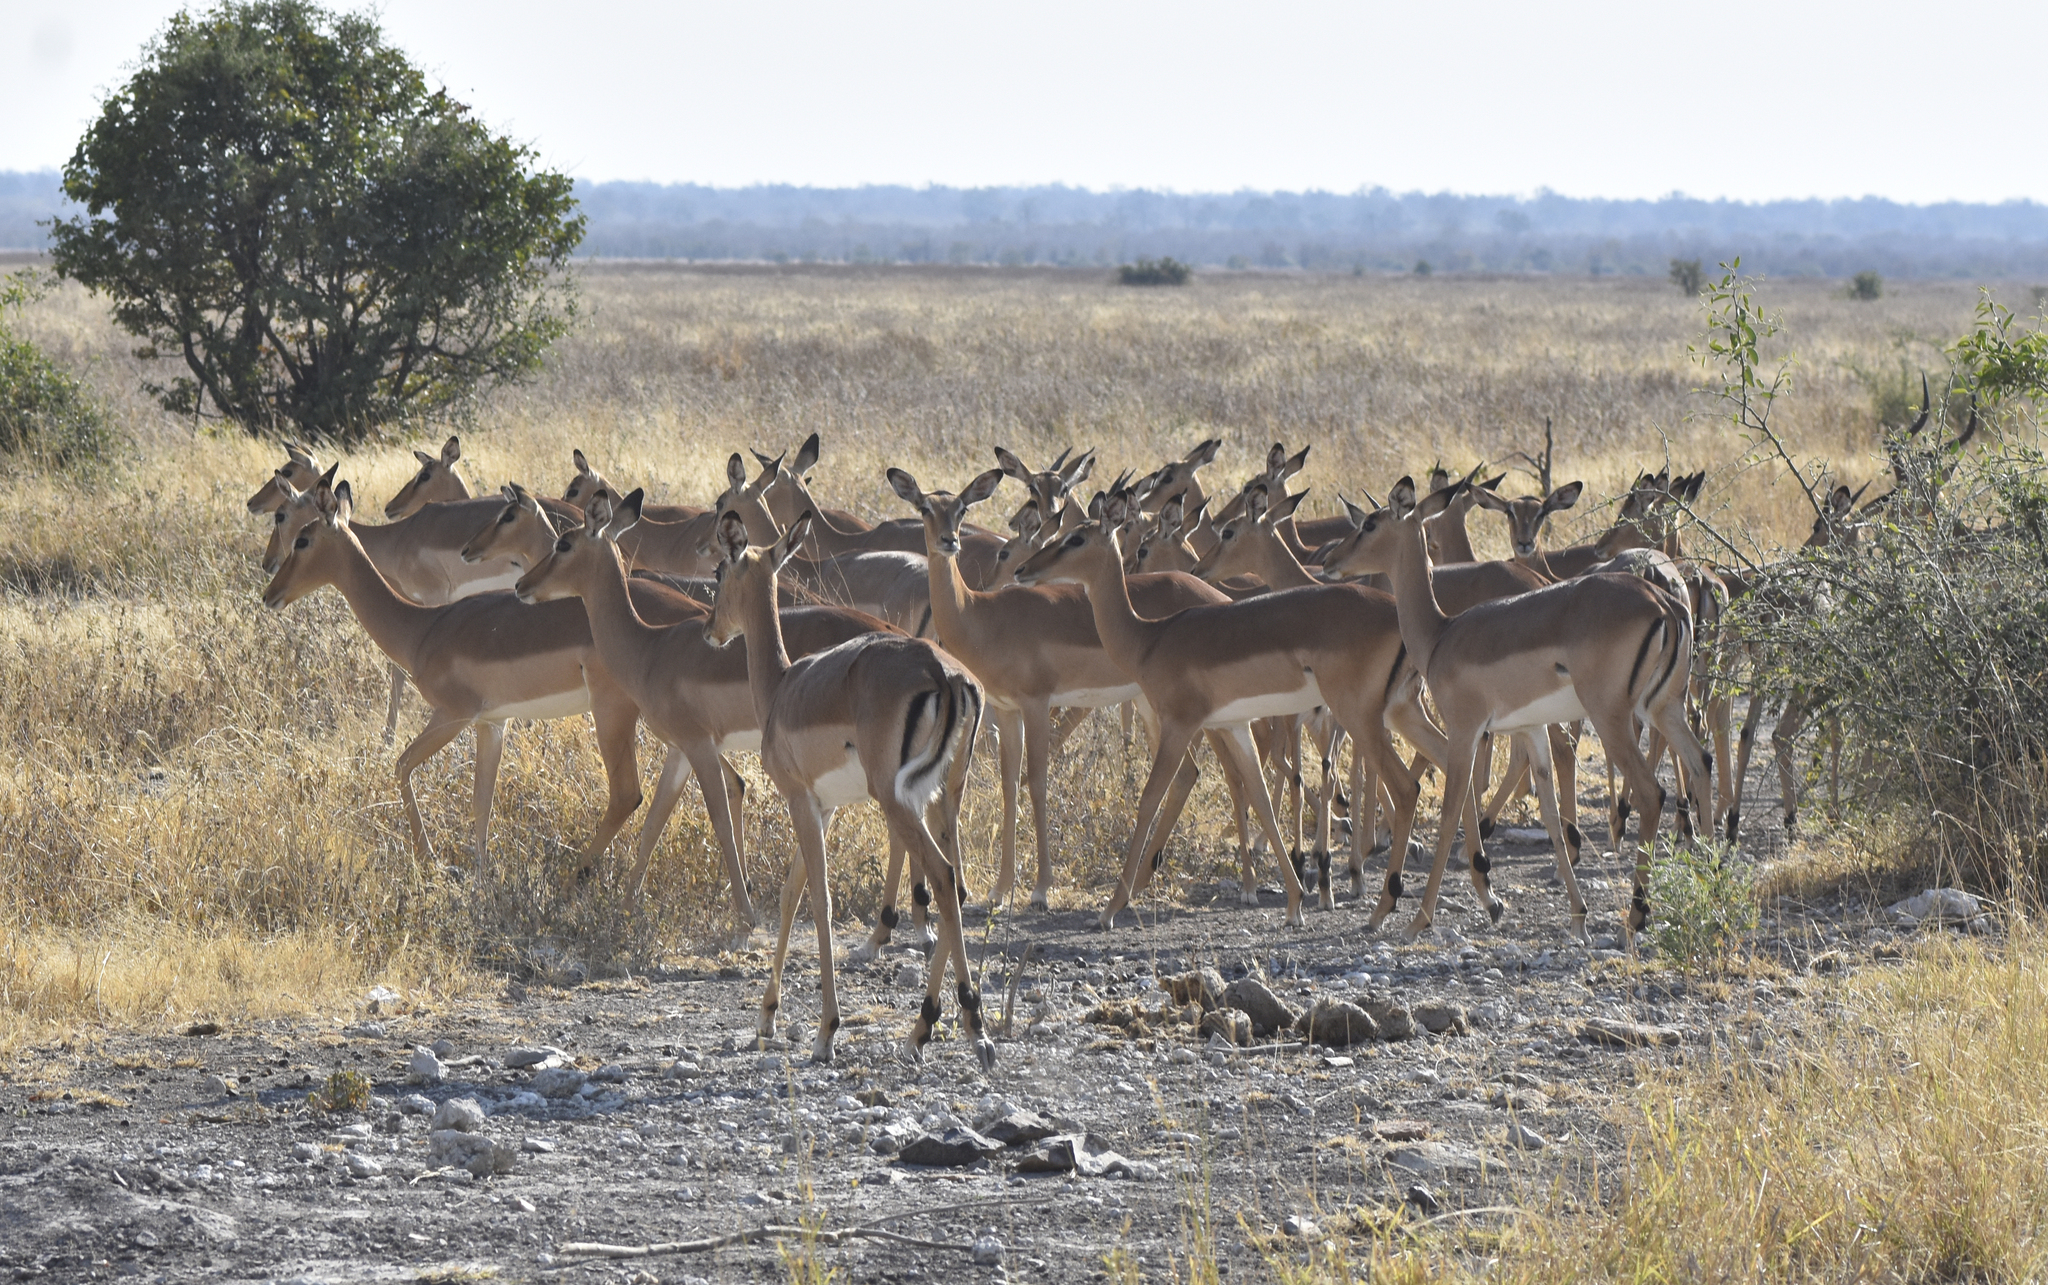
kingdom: Animalia
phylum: Chordata
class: Mammalia
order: Artiodactyla
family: Bovidae
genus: Aepyceros
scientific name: Aepyceros melampus
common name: Impala
